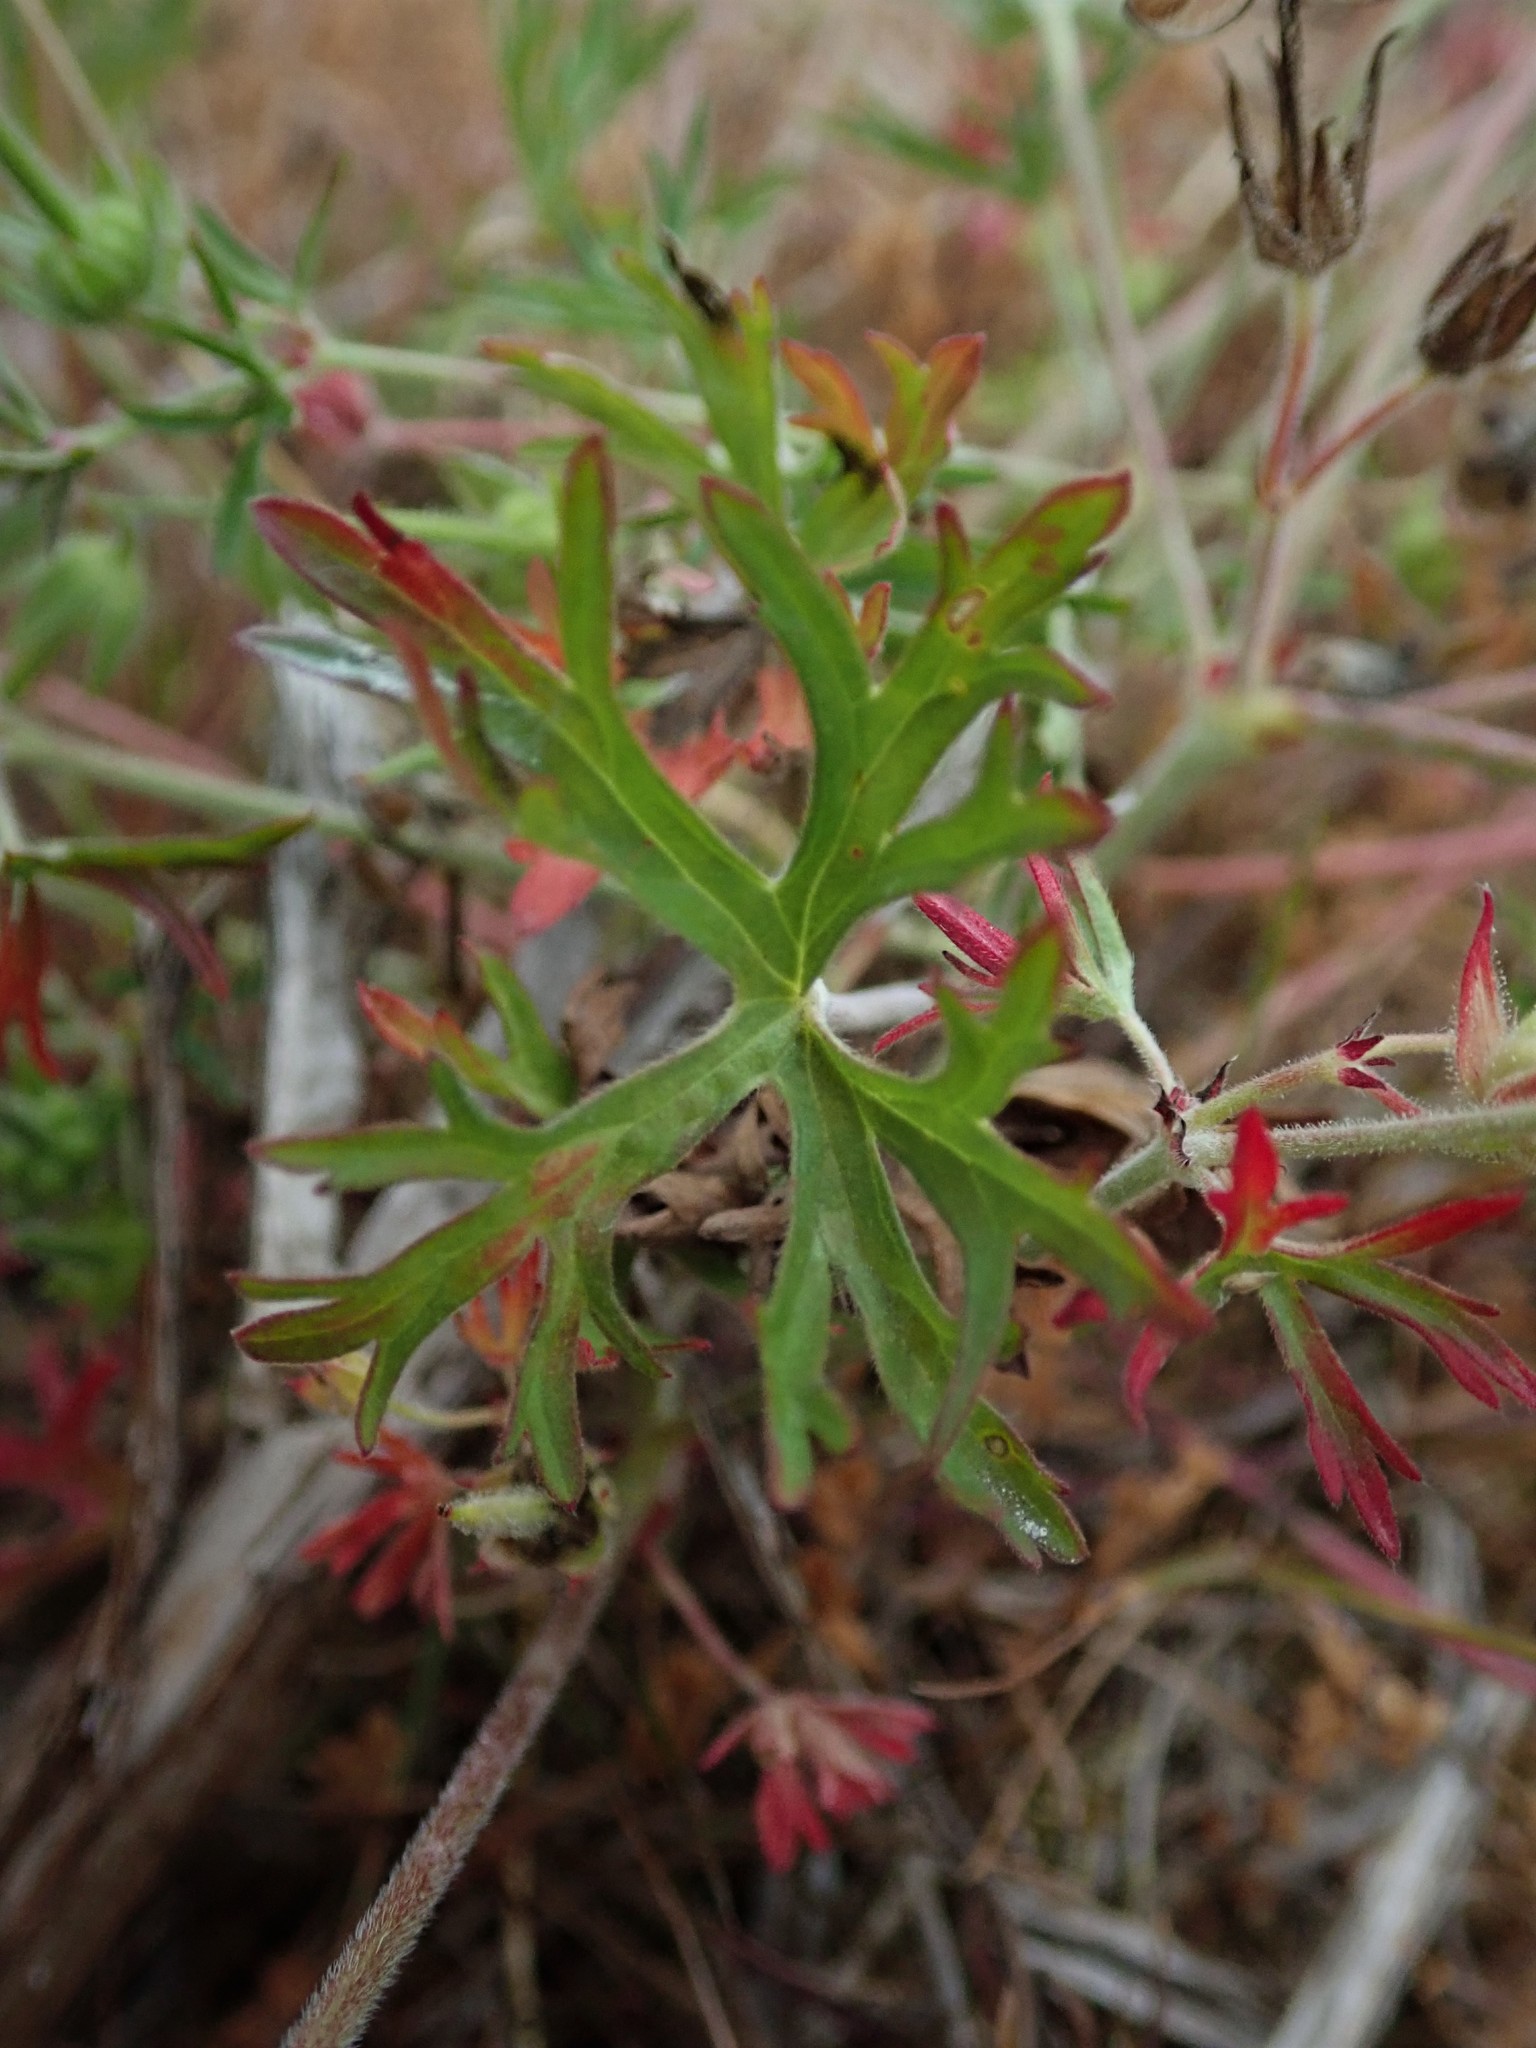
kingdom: Plantae
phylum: Tracheophyta
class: Magnoliopsida
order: Geraniales
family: Geraniaceae
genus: Geranium
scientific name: Geranium dissectum
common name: Cut-leaved crane's-bill
